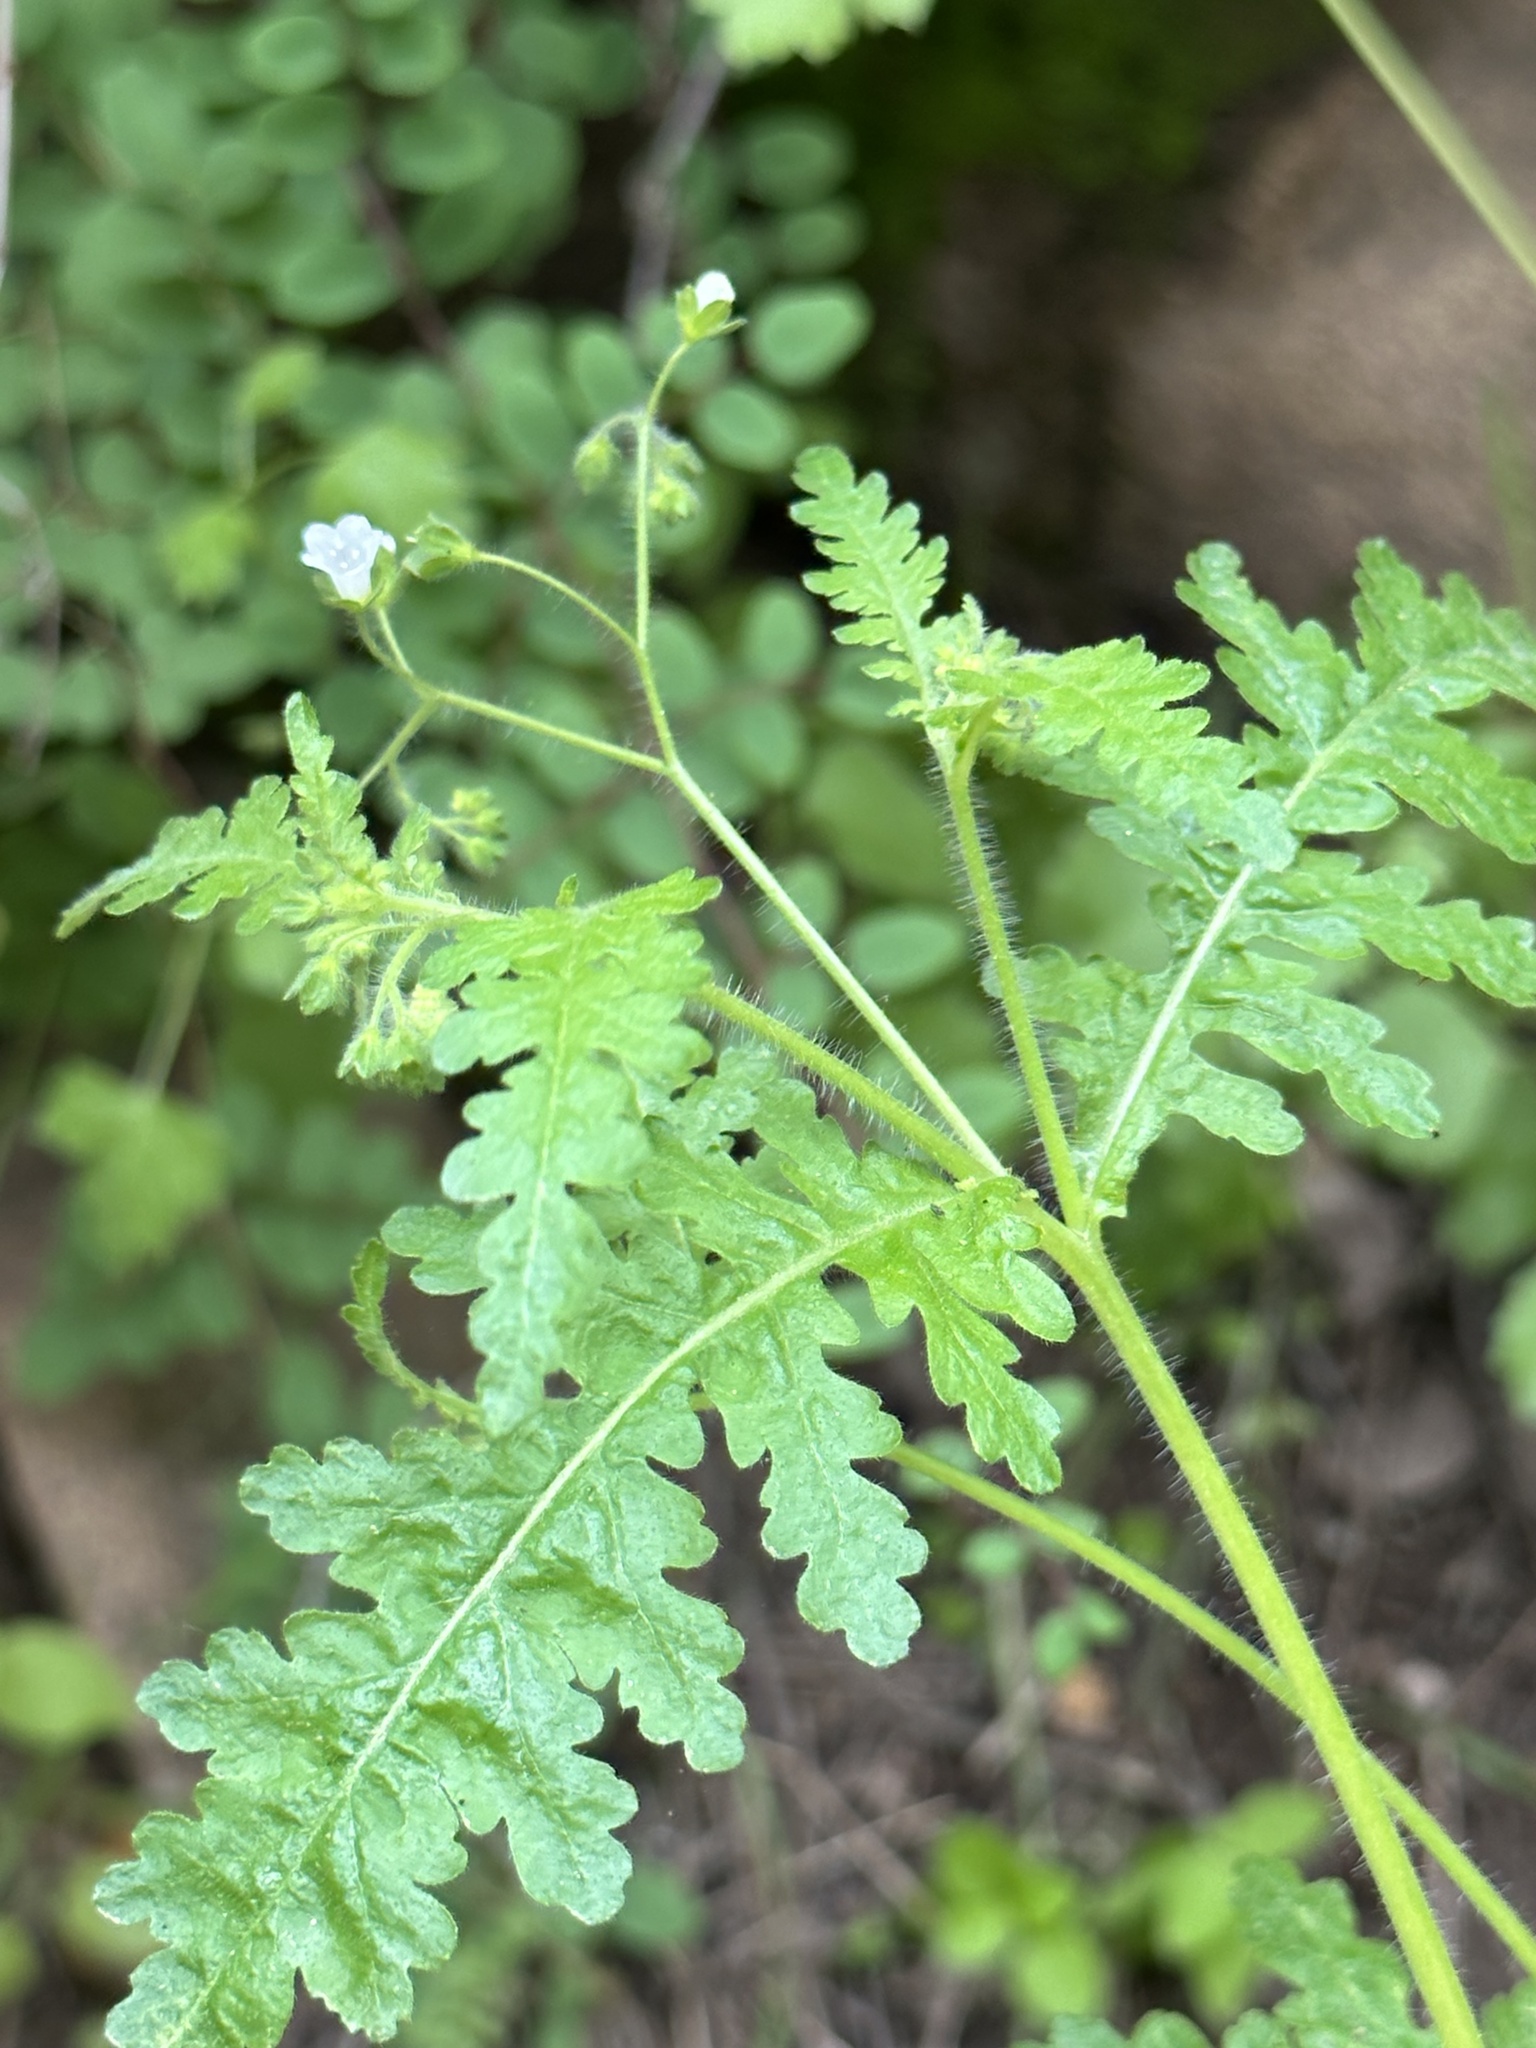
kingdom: Plantae
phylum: Tracheophyta
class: Magnoliopsida
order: Boraginales
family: Hydrophyllaceae
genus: Eucrypta
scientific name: Eucrypta chrysanthemifolia
